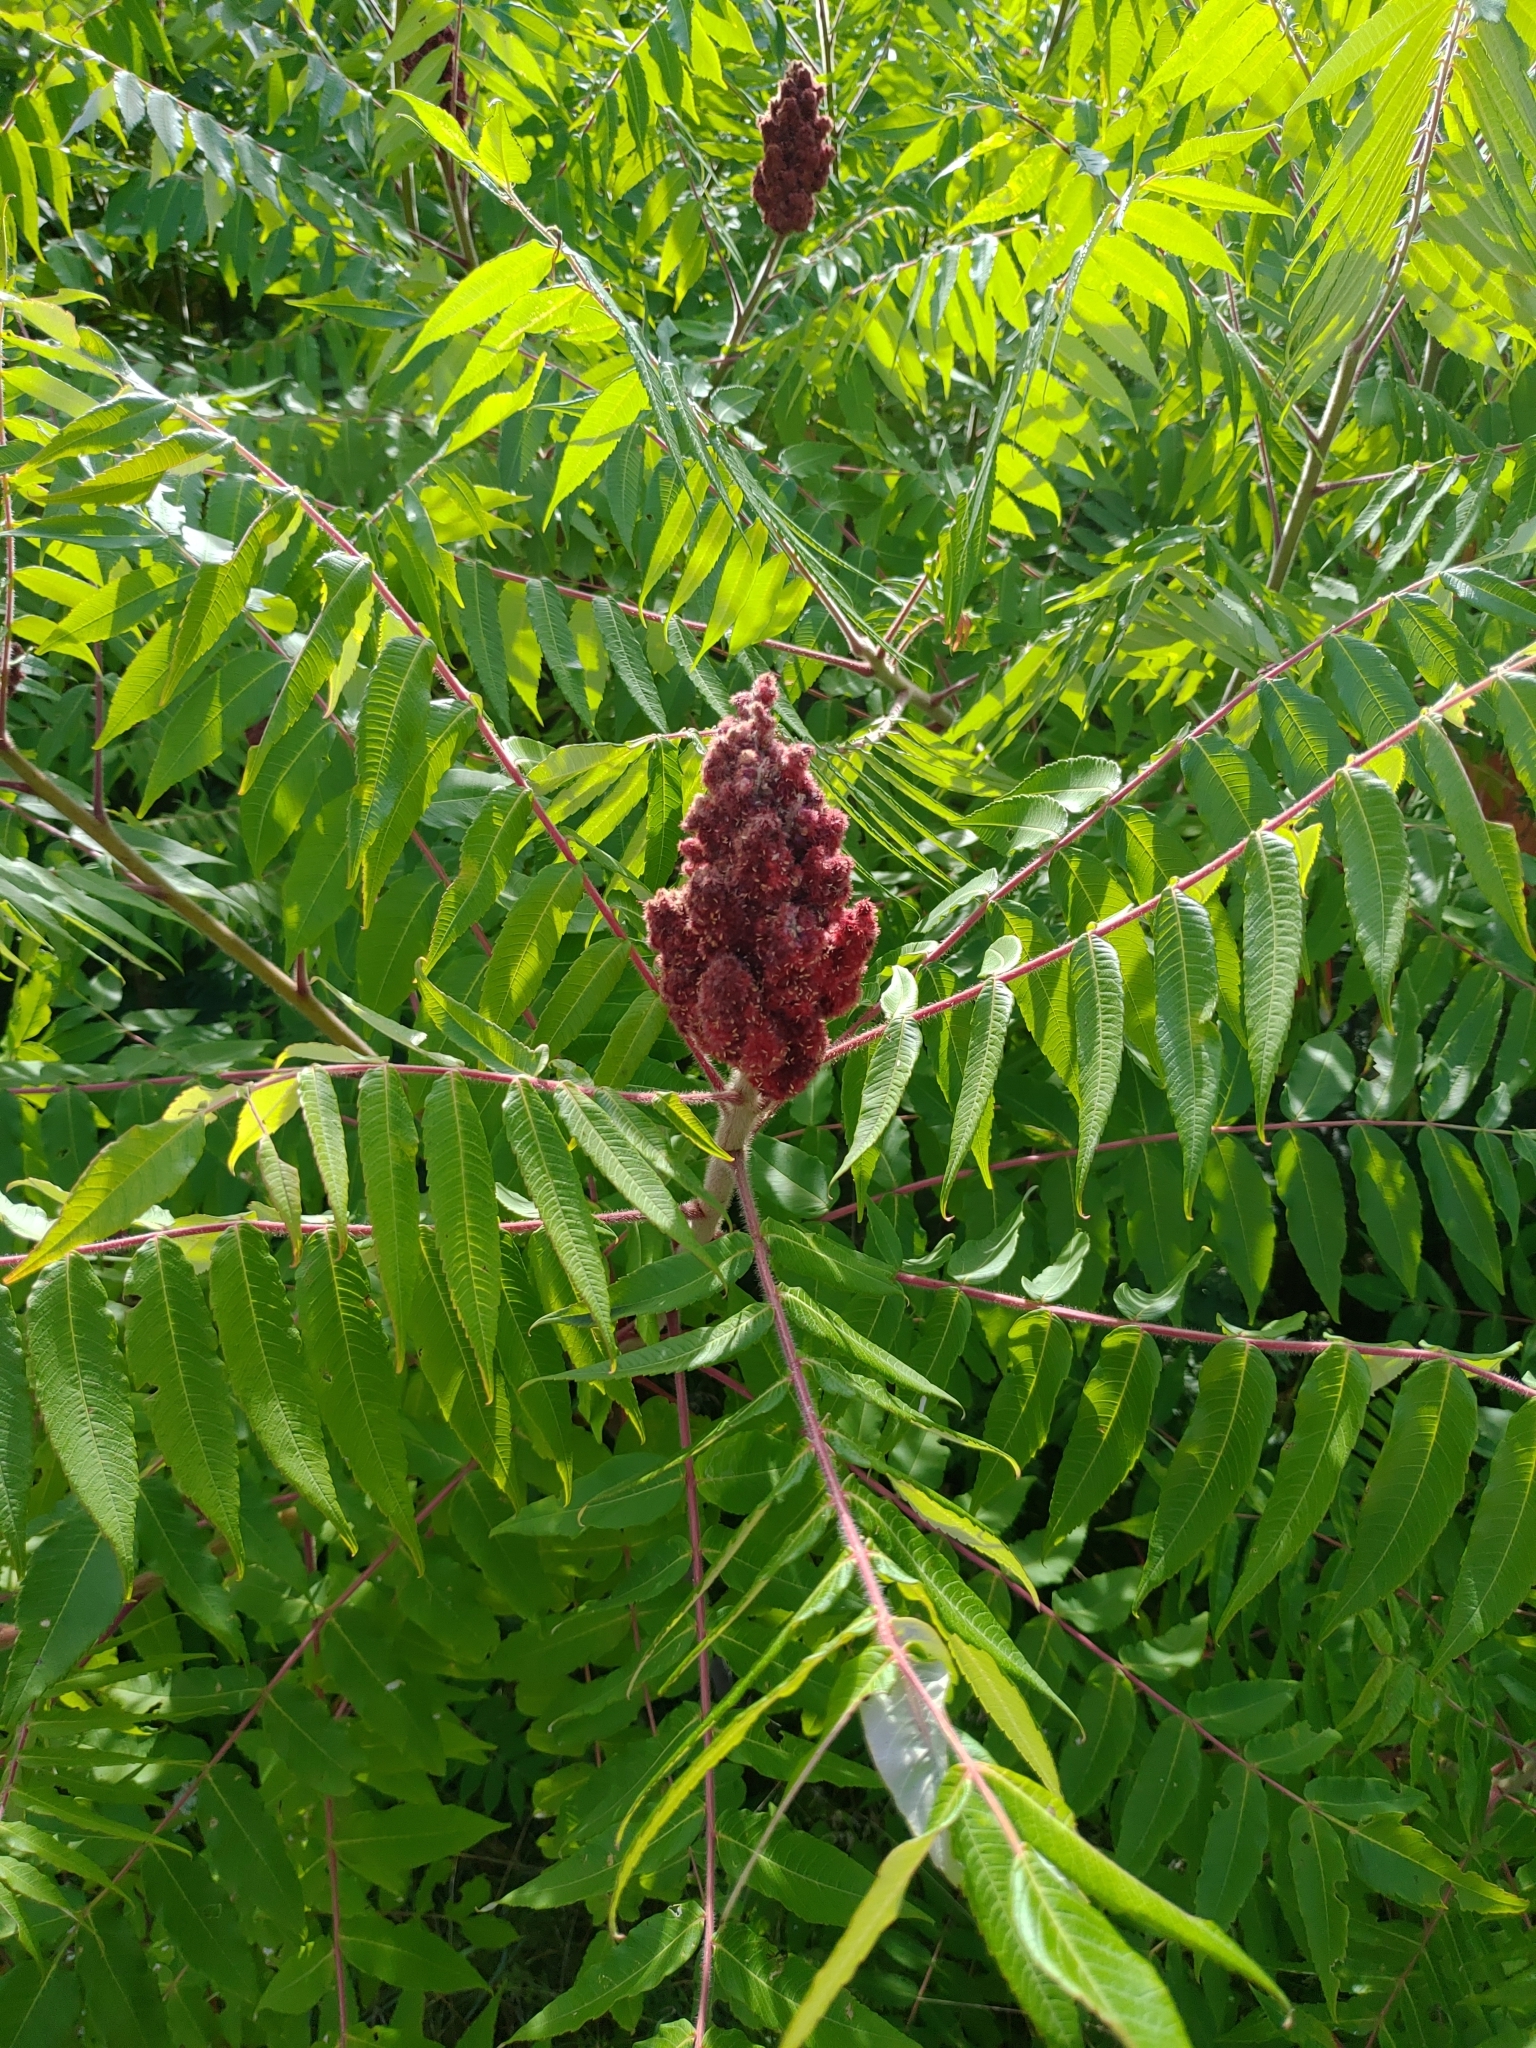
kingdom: Plantae
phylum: Tracheophyta
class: Magnoliopsida
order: Sapindales
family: Anacardiaceae
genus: Rhus
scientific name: Rhus typhina
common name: Staghorn sumac
